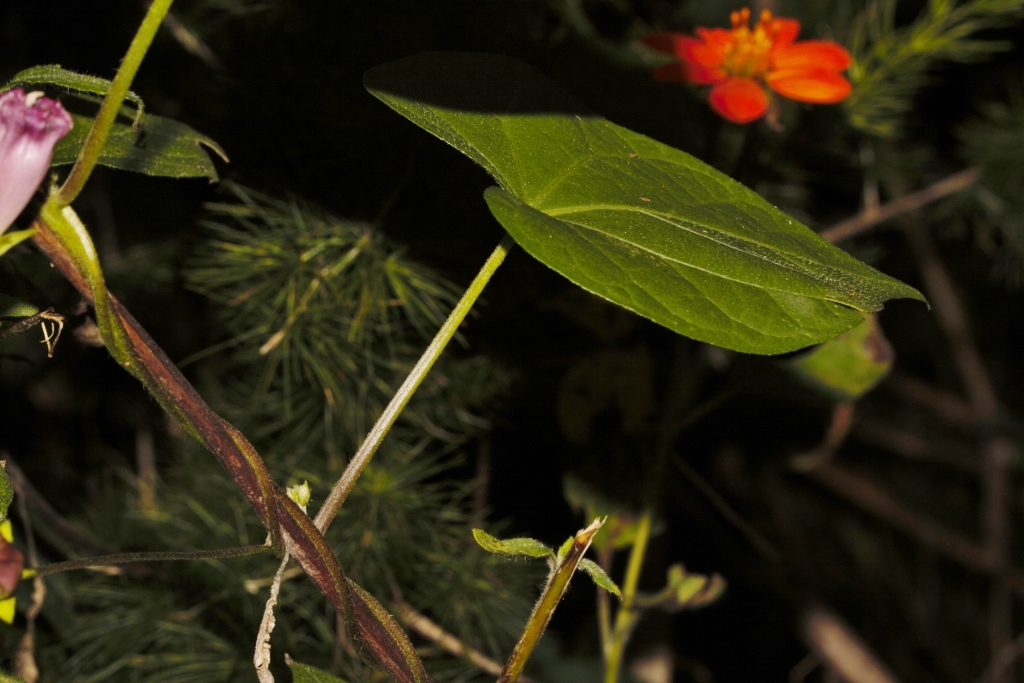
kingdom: Plantae
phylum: Tracheophyta
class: Magnoliopsida
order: Solanales
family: Convolvulaceae
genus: Ipomoea
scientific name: Ipomoea purpurea
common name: Common morning-glory
